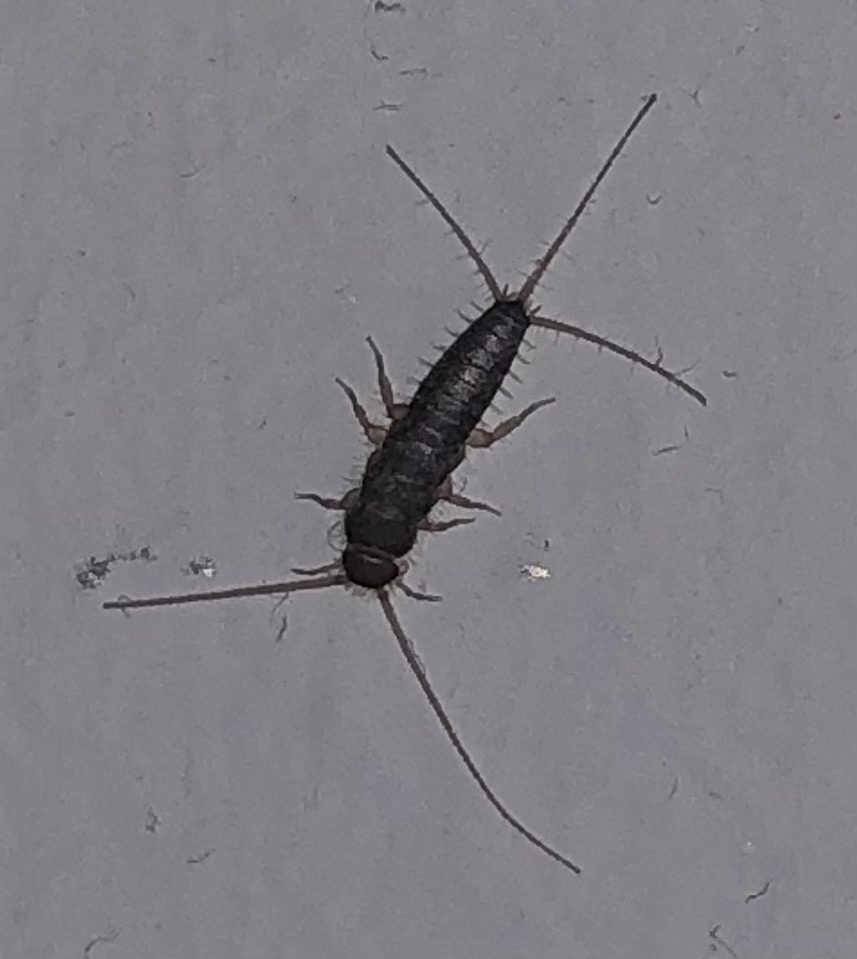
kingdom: Animalia
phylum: Arthropoda
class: Insecta
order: Zygentoma
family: Lepismatidae
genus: Ctenolepisma
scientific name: Ctenolepisma longicaudatum
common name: Silverfish
